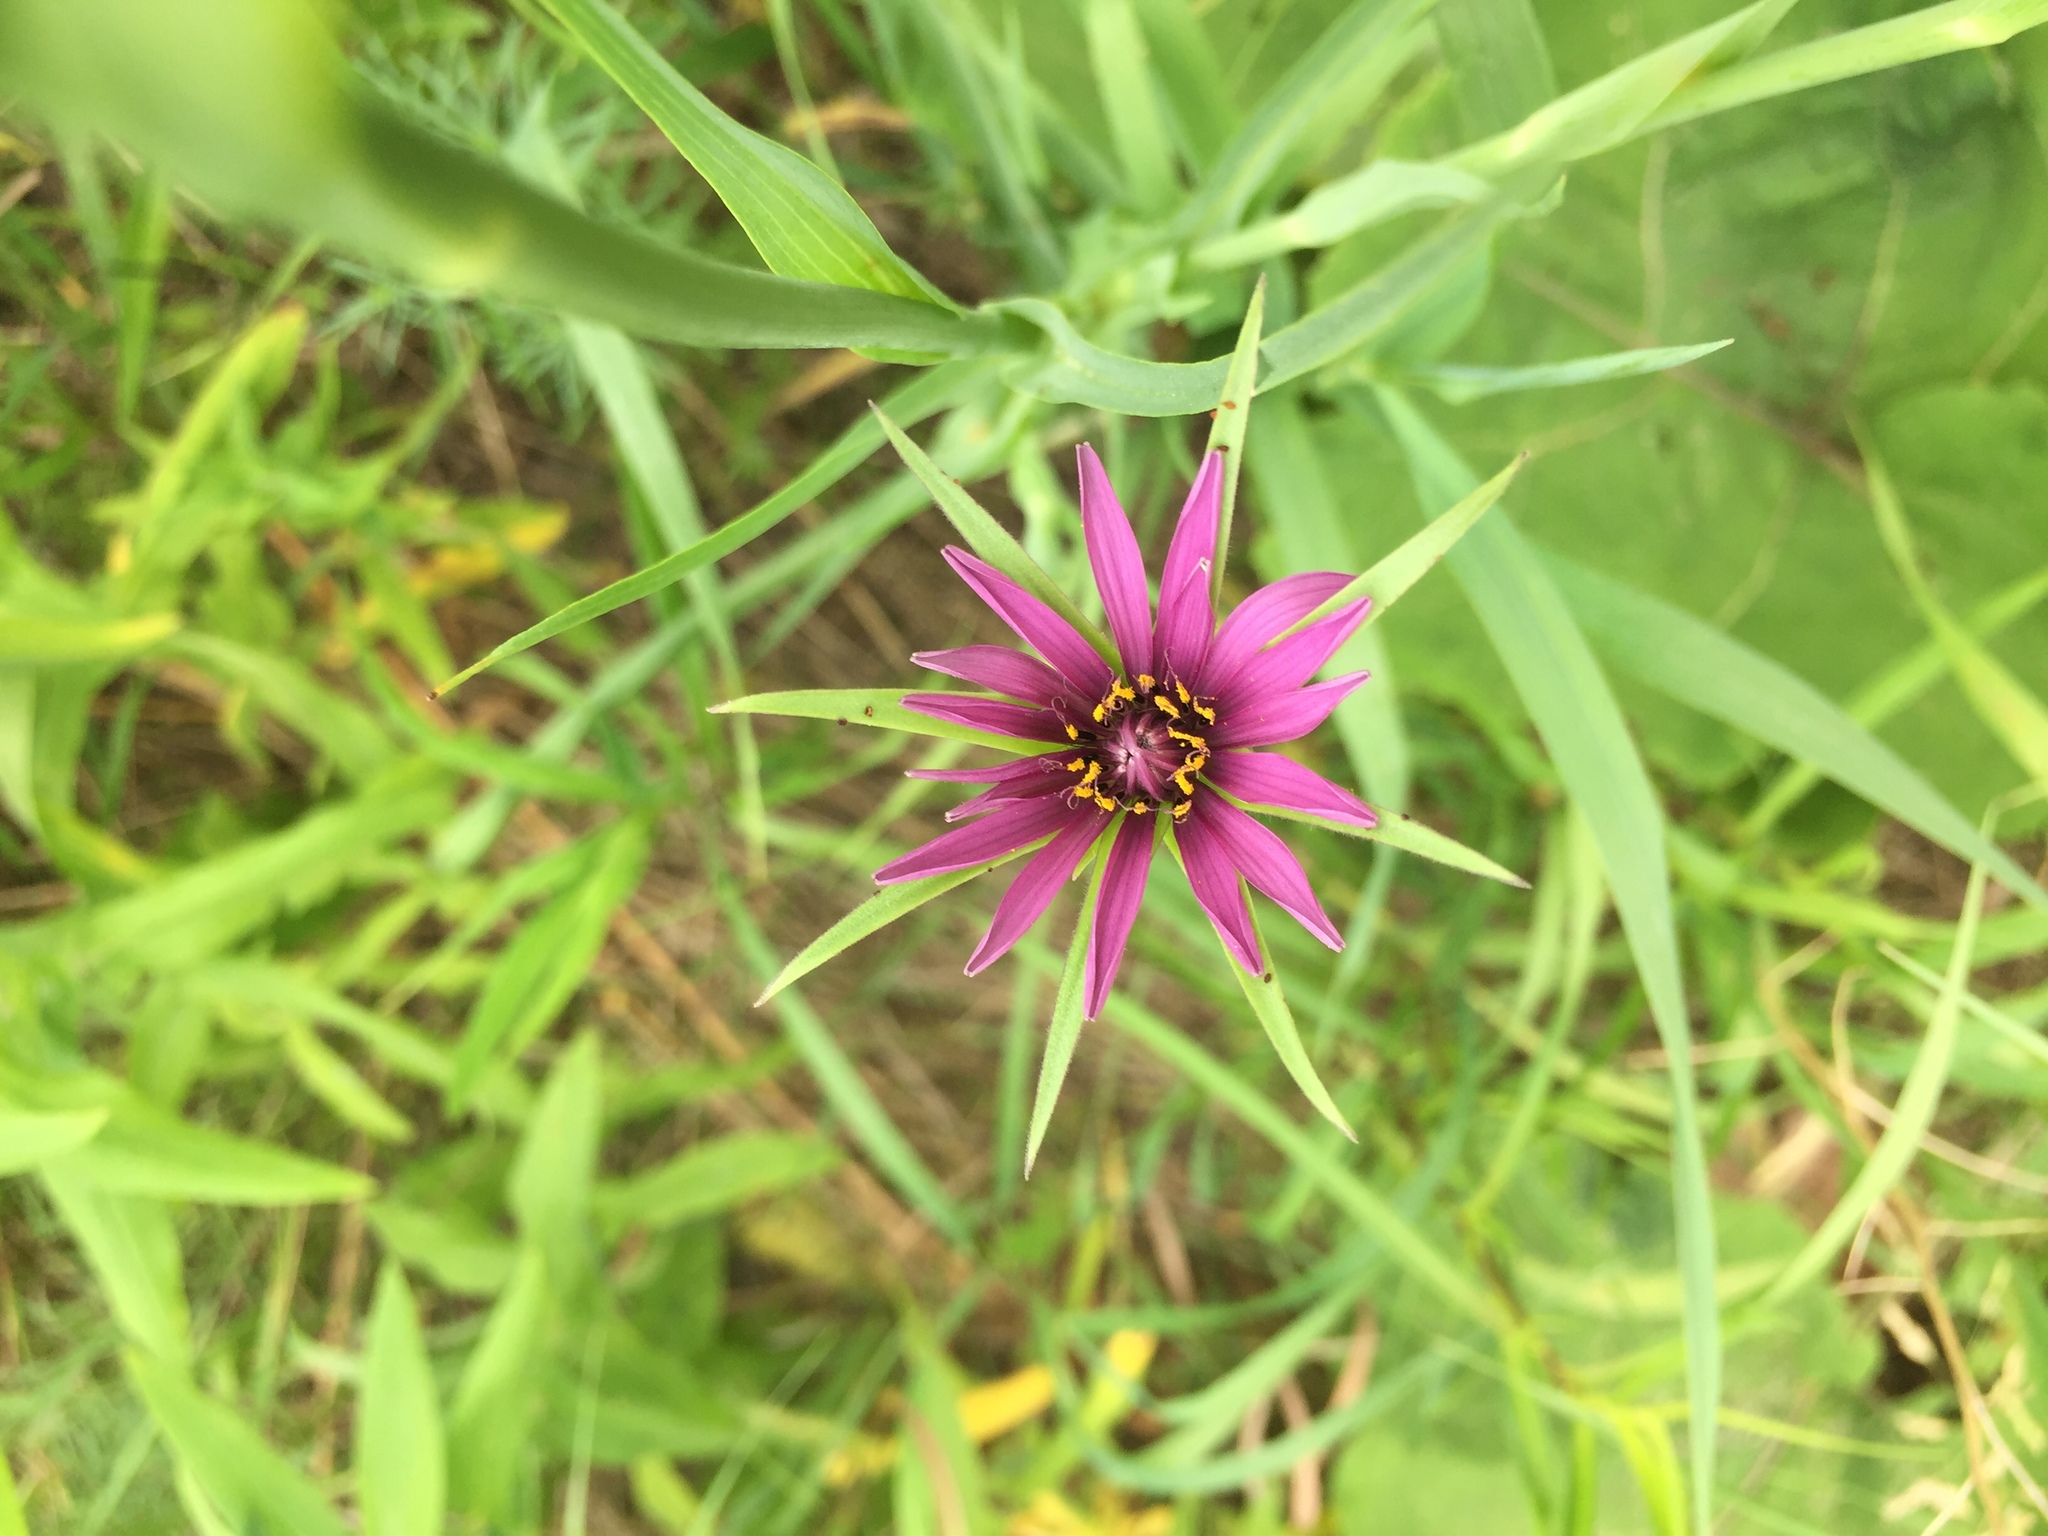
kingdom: Plantae
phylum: Tracheophyta
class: Magnoliopsida
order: Asterales
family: Asteraceae
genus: Tragopogon
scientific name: Tragopogon porrifolius
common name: Salsify
